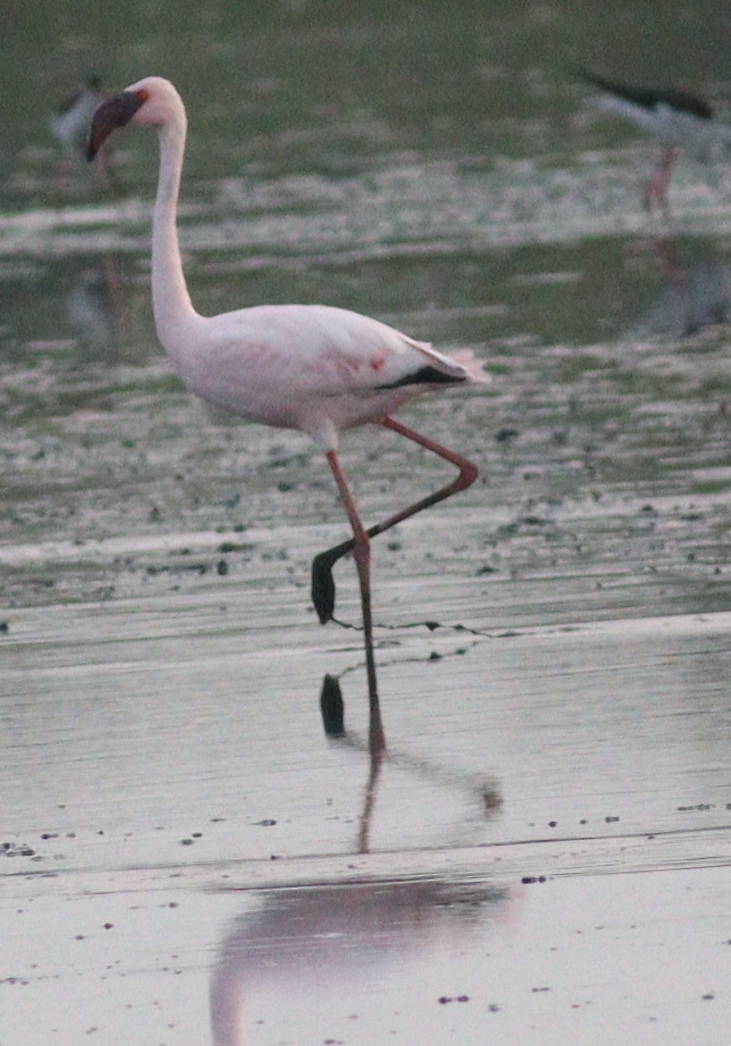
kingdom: Animalia
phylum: Chordata
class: Aves
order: Phoenicopteriformes
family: Phoenicopteridae
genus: Phoeniconaias
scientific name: Phoeniconaias minor
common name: Lesser flamingo
